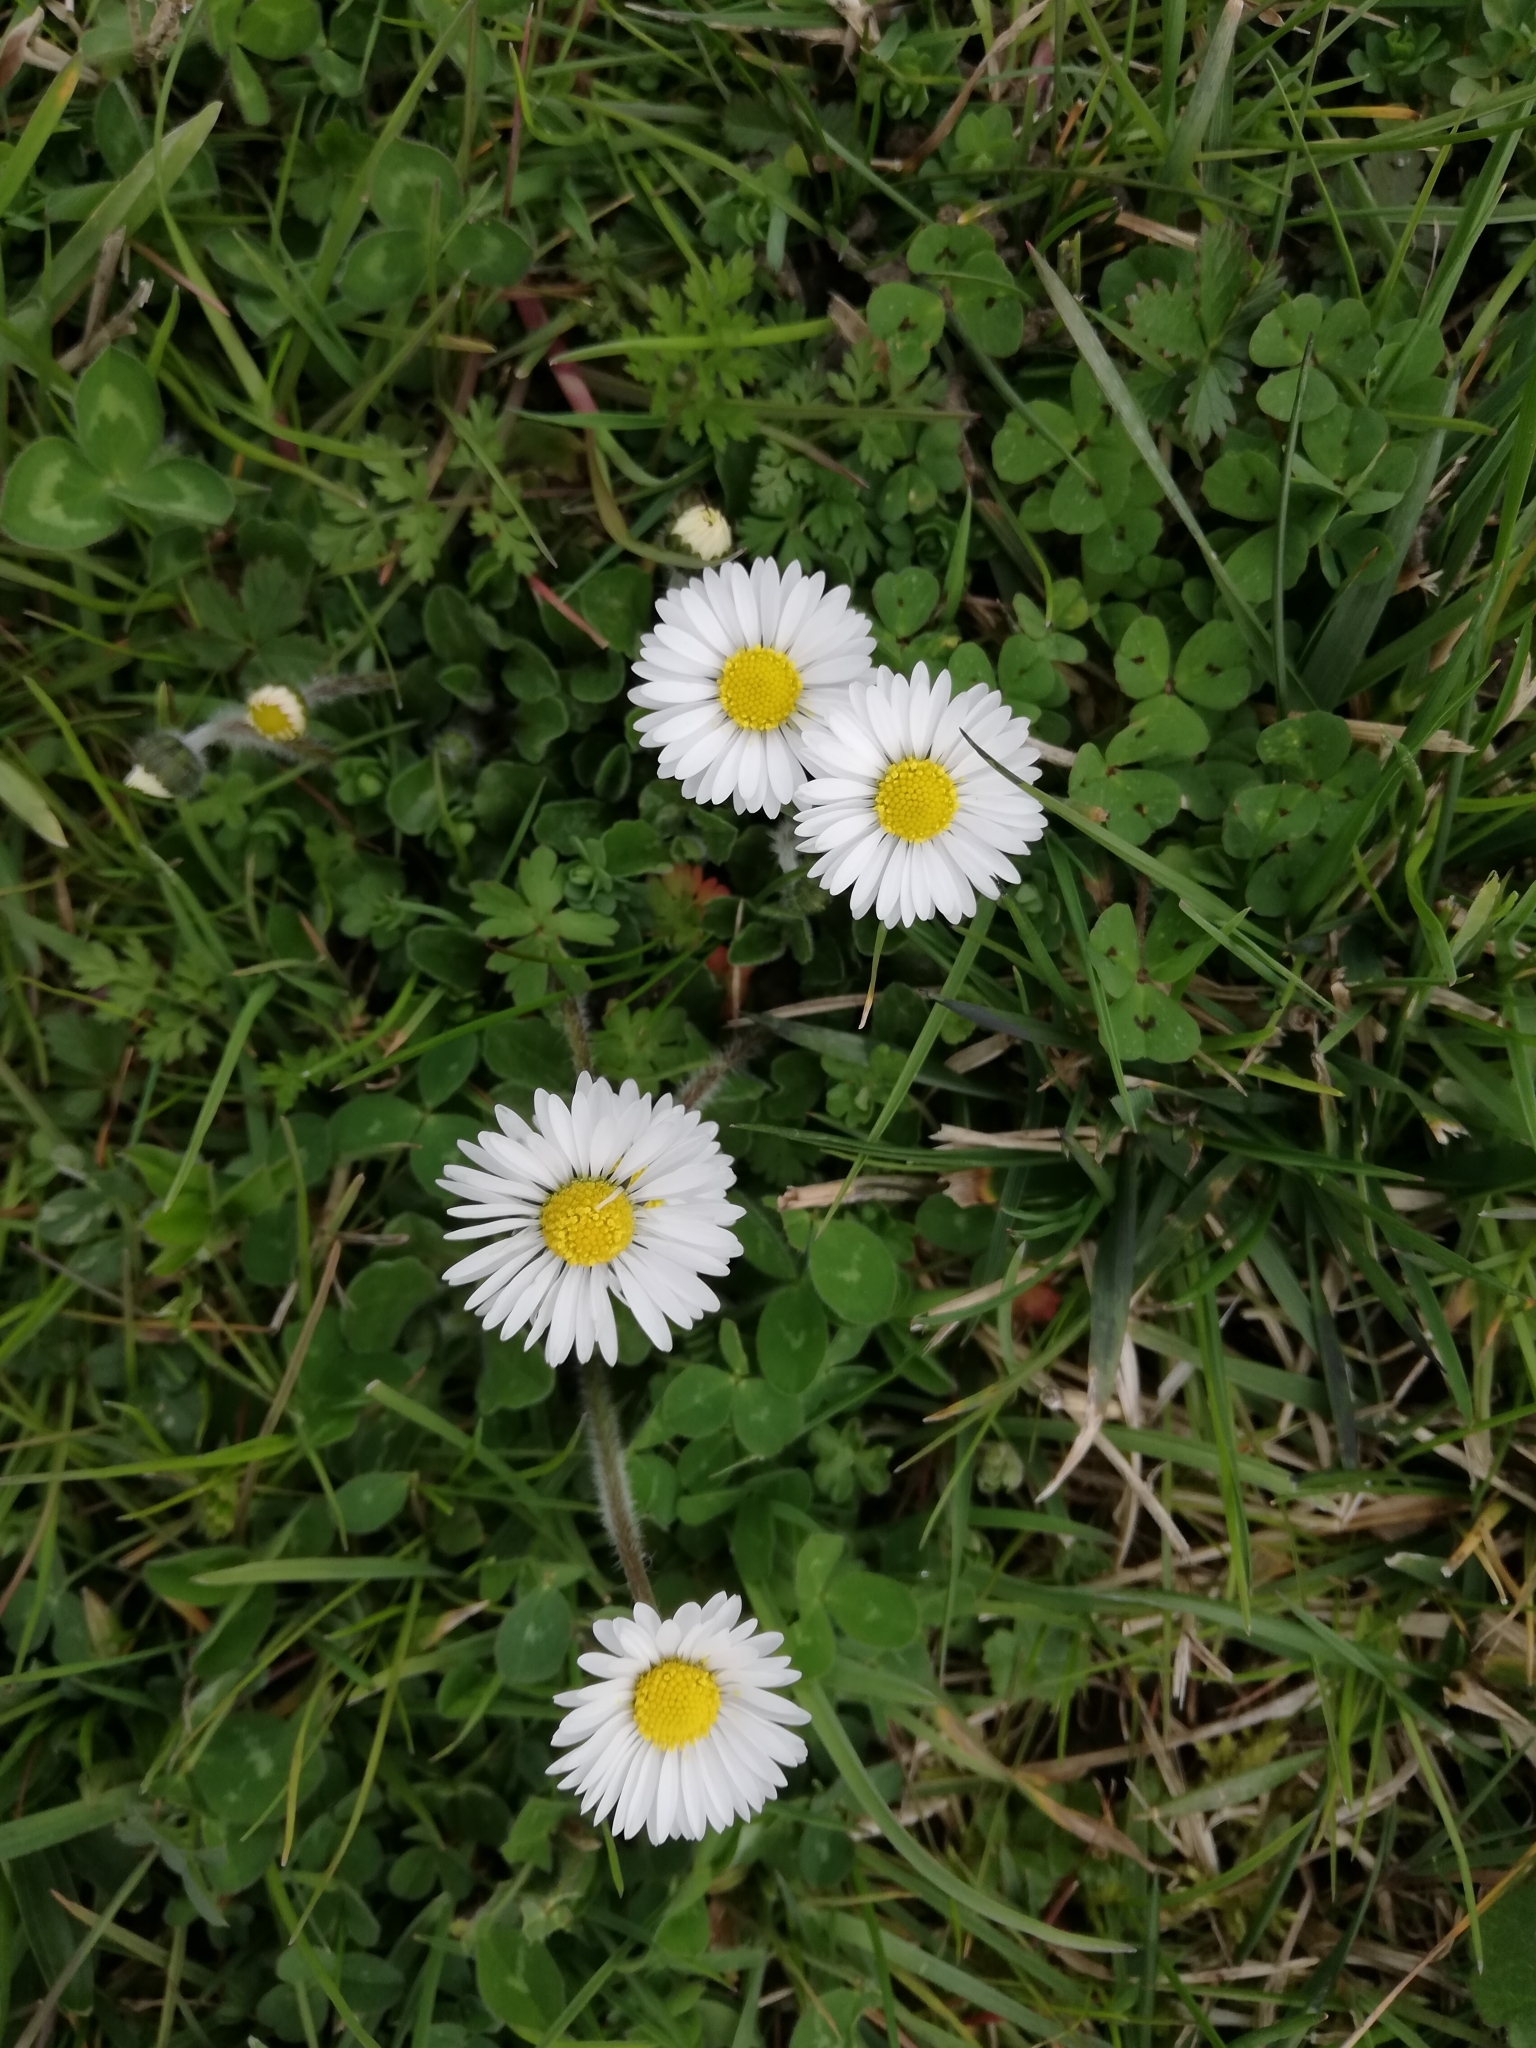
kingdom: Plantae
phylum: Tracheophyta
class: Magnoliopsida
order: Asterales
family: Asteraceae
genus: Bellis
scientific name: Bellis perennis
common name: Lawndaisy
